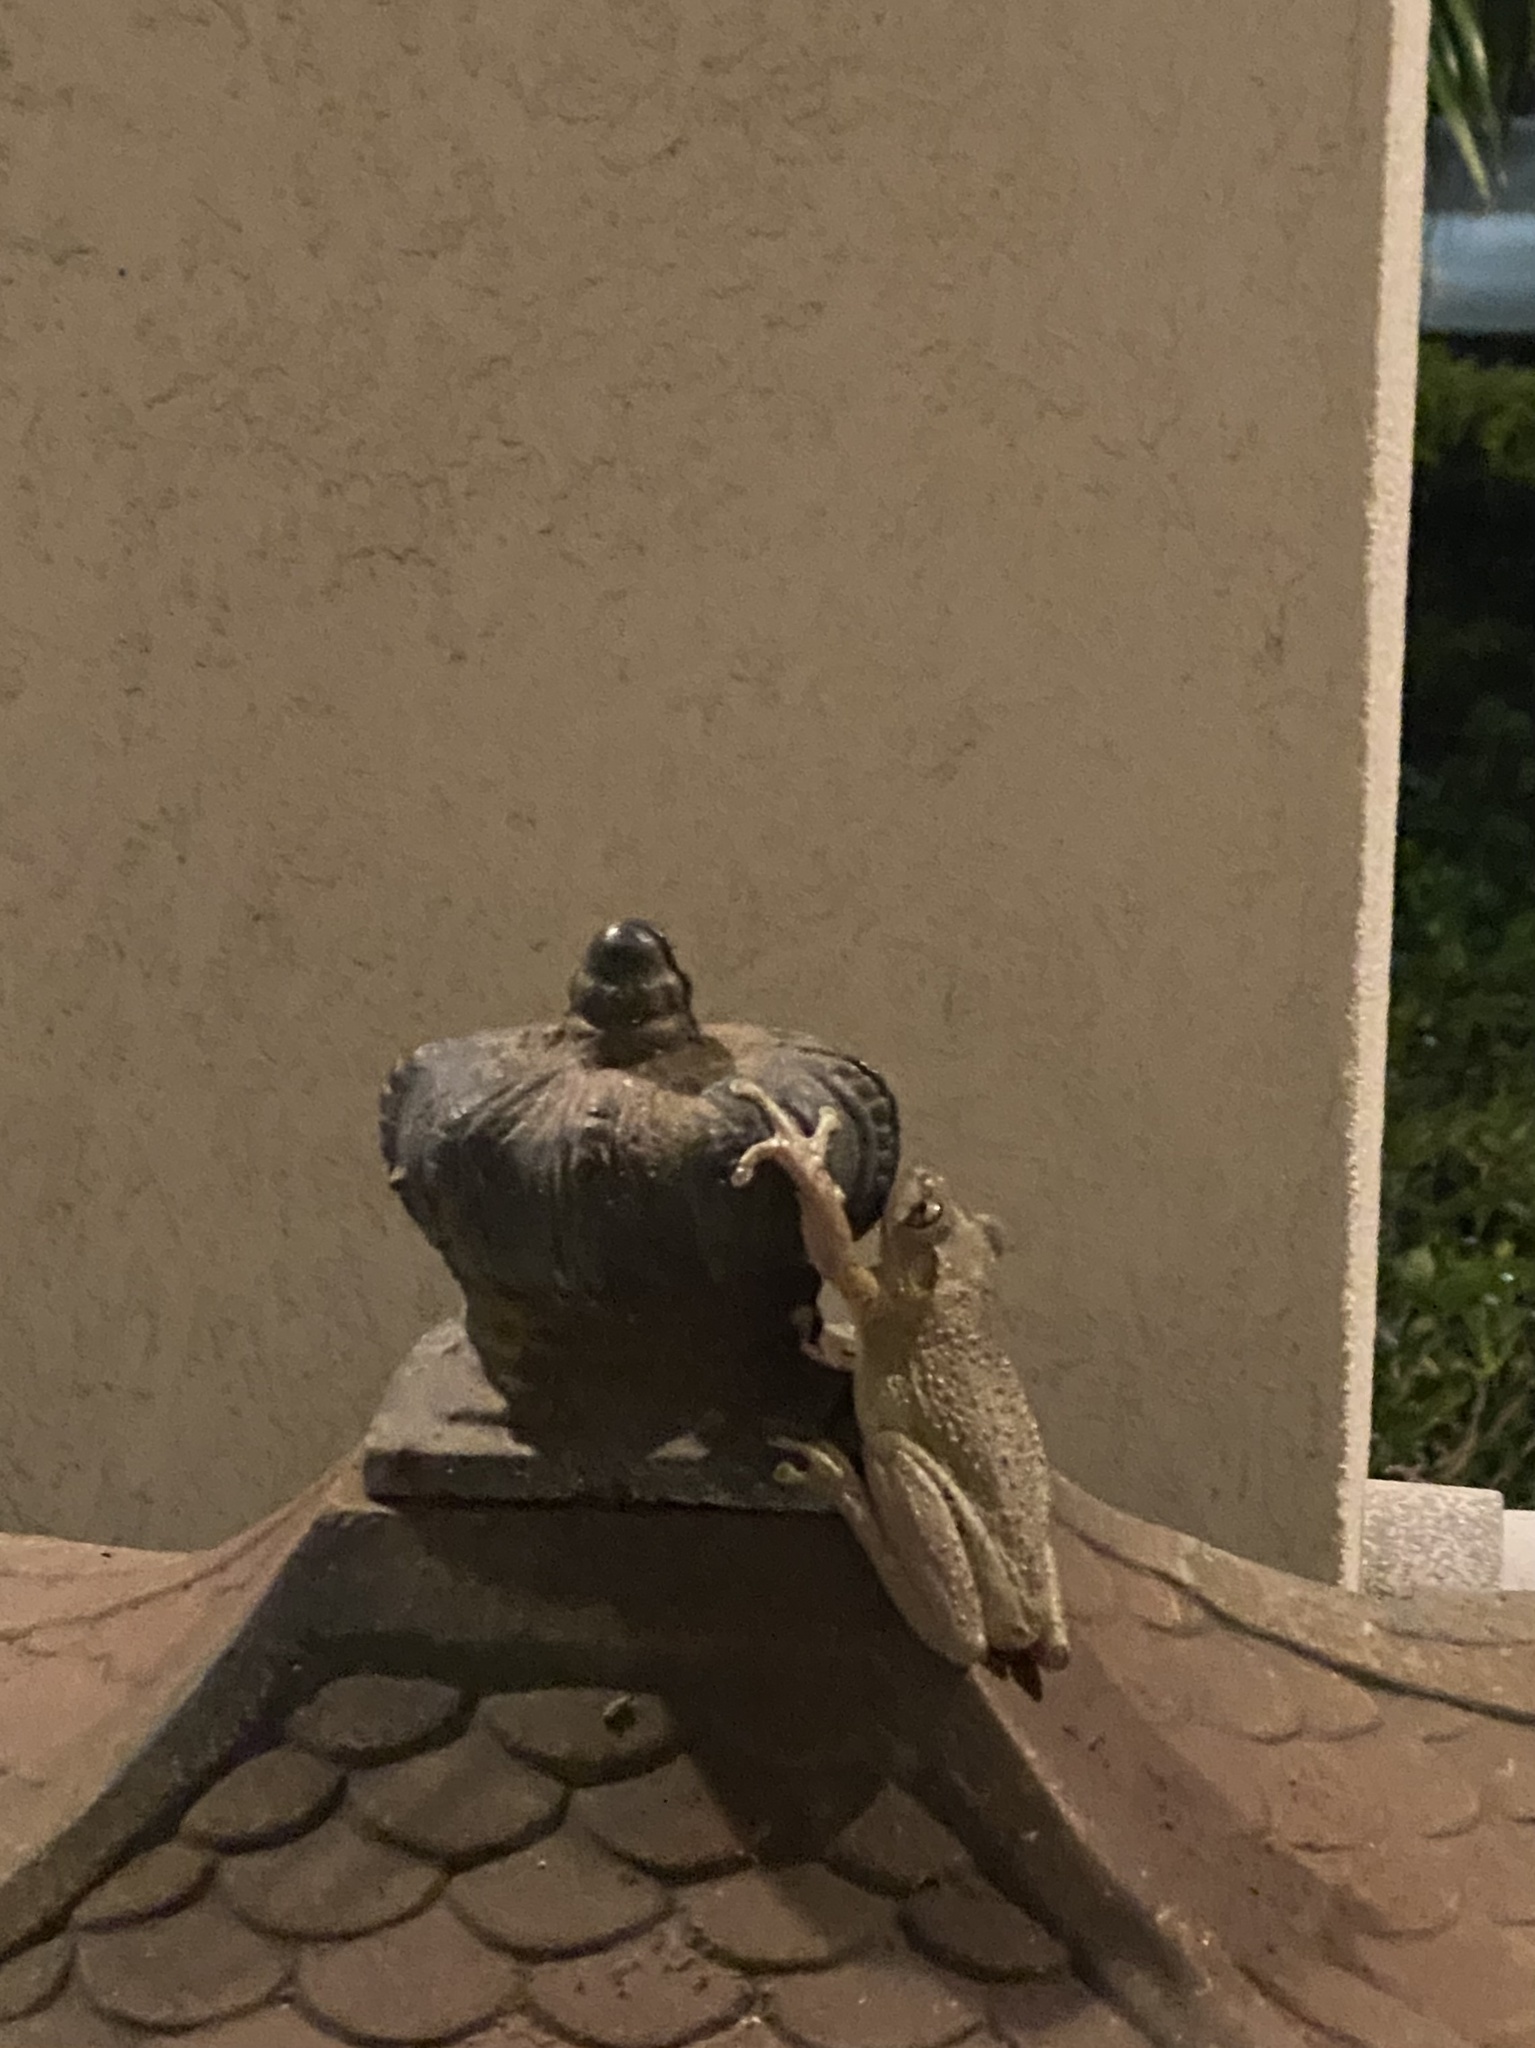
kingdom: Animalia
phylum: Chordata
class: Amphibia
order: Anura
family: Hylidae
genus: Osteopilus
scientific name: Osteopilus septentrionalis
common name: Cuban treefrog
